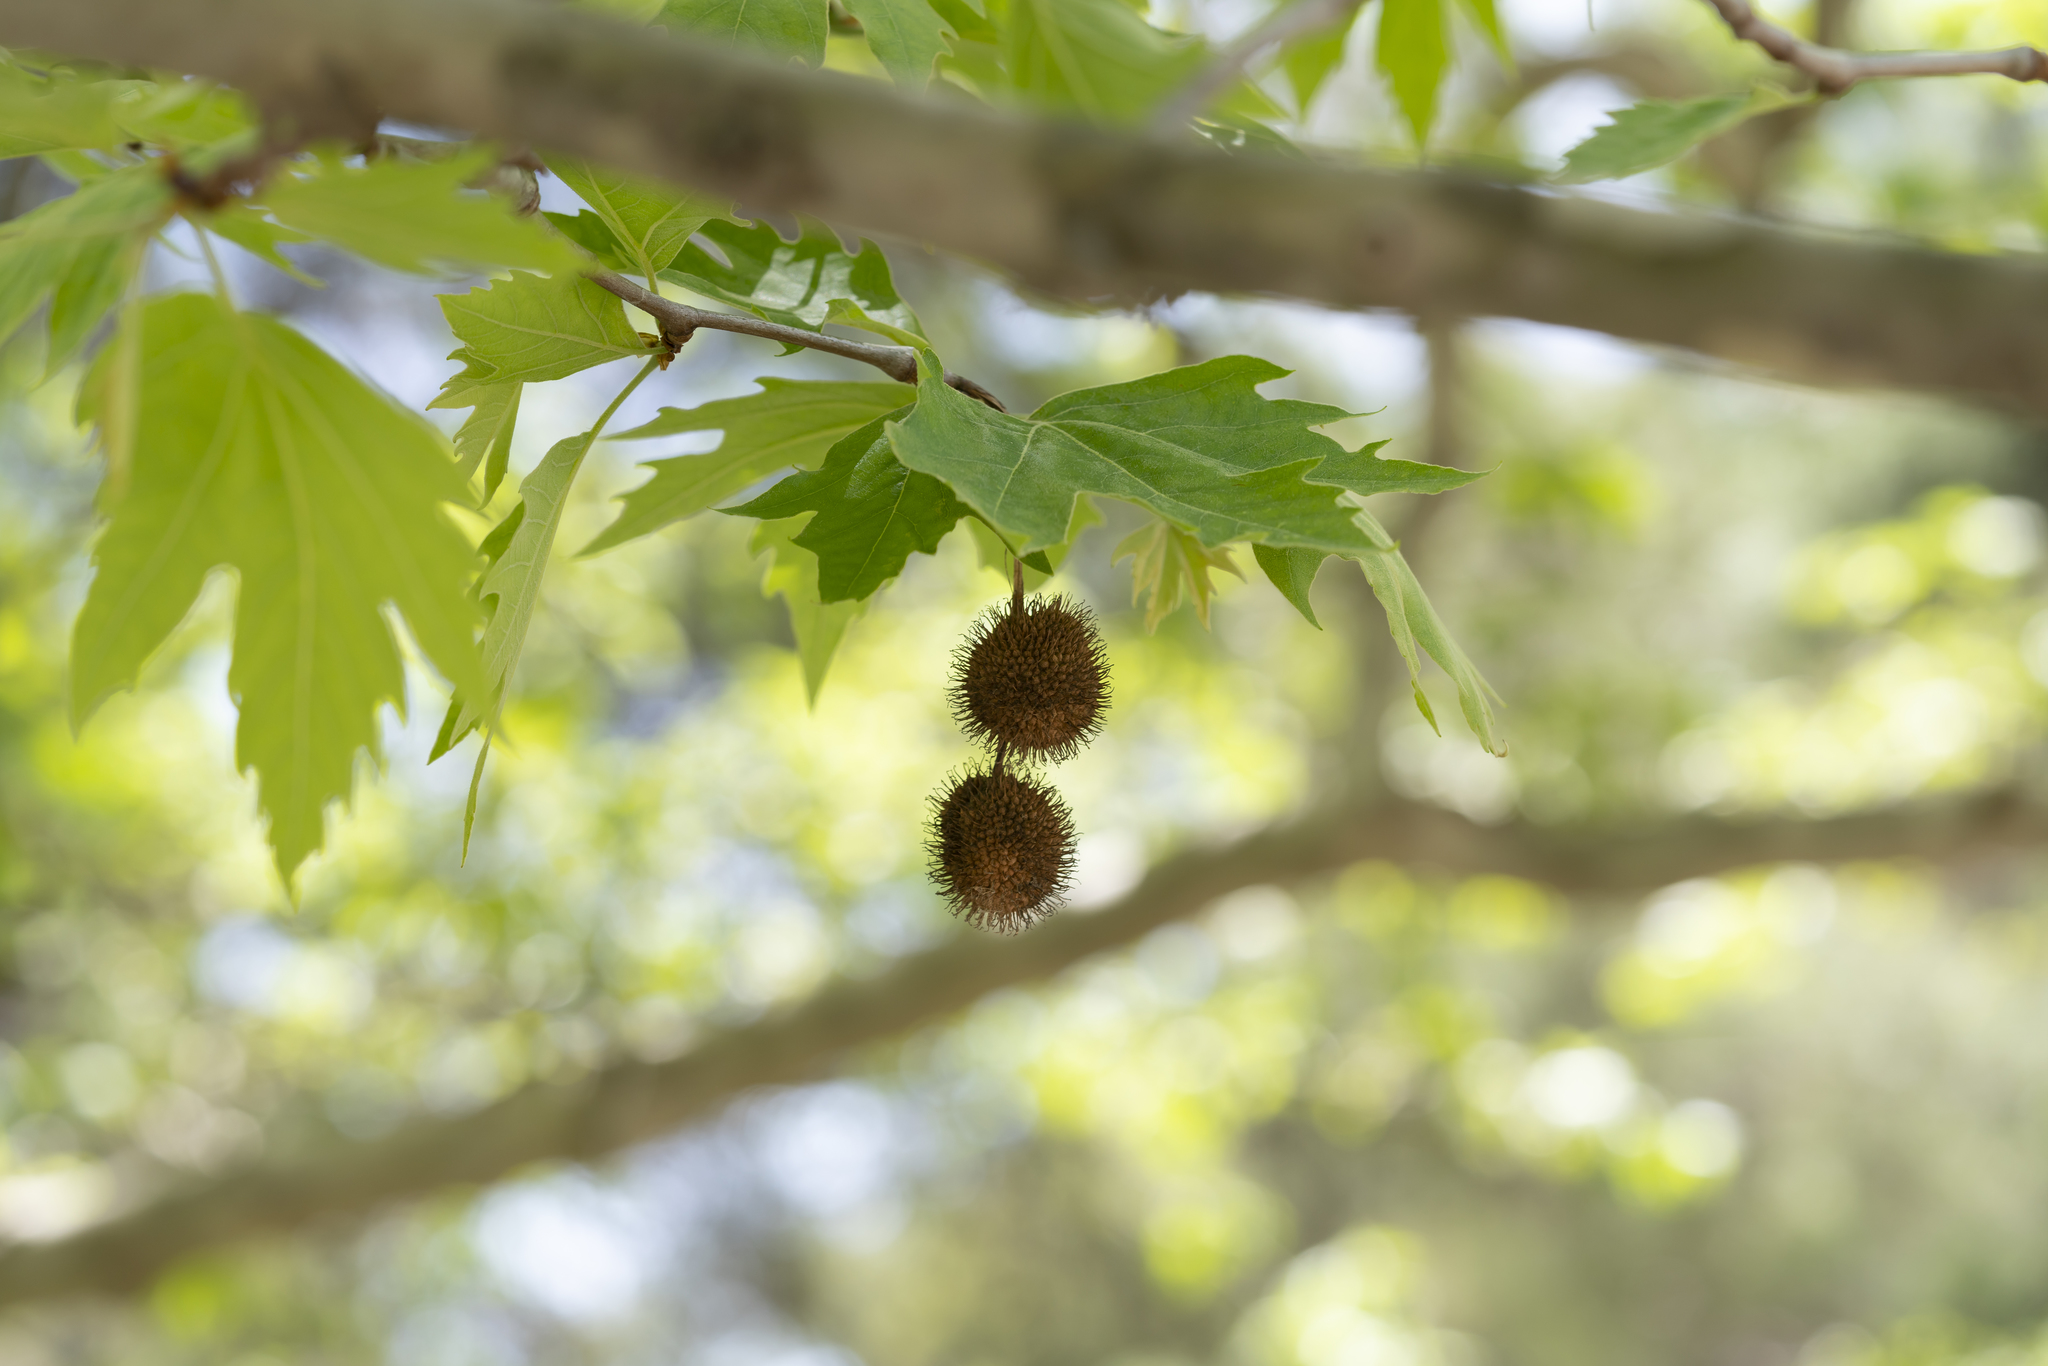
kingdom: Plantae
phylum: Tracheophyta
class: Magnoliopsida
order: Proteales
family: Platanaceae
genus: Platanus
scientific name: Platanus orientalis
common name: Oriental plane
